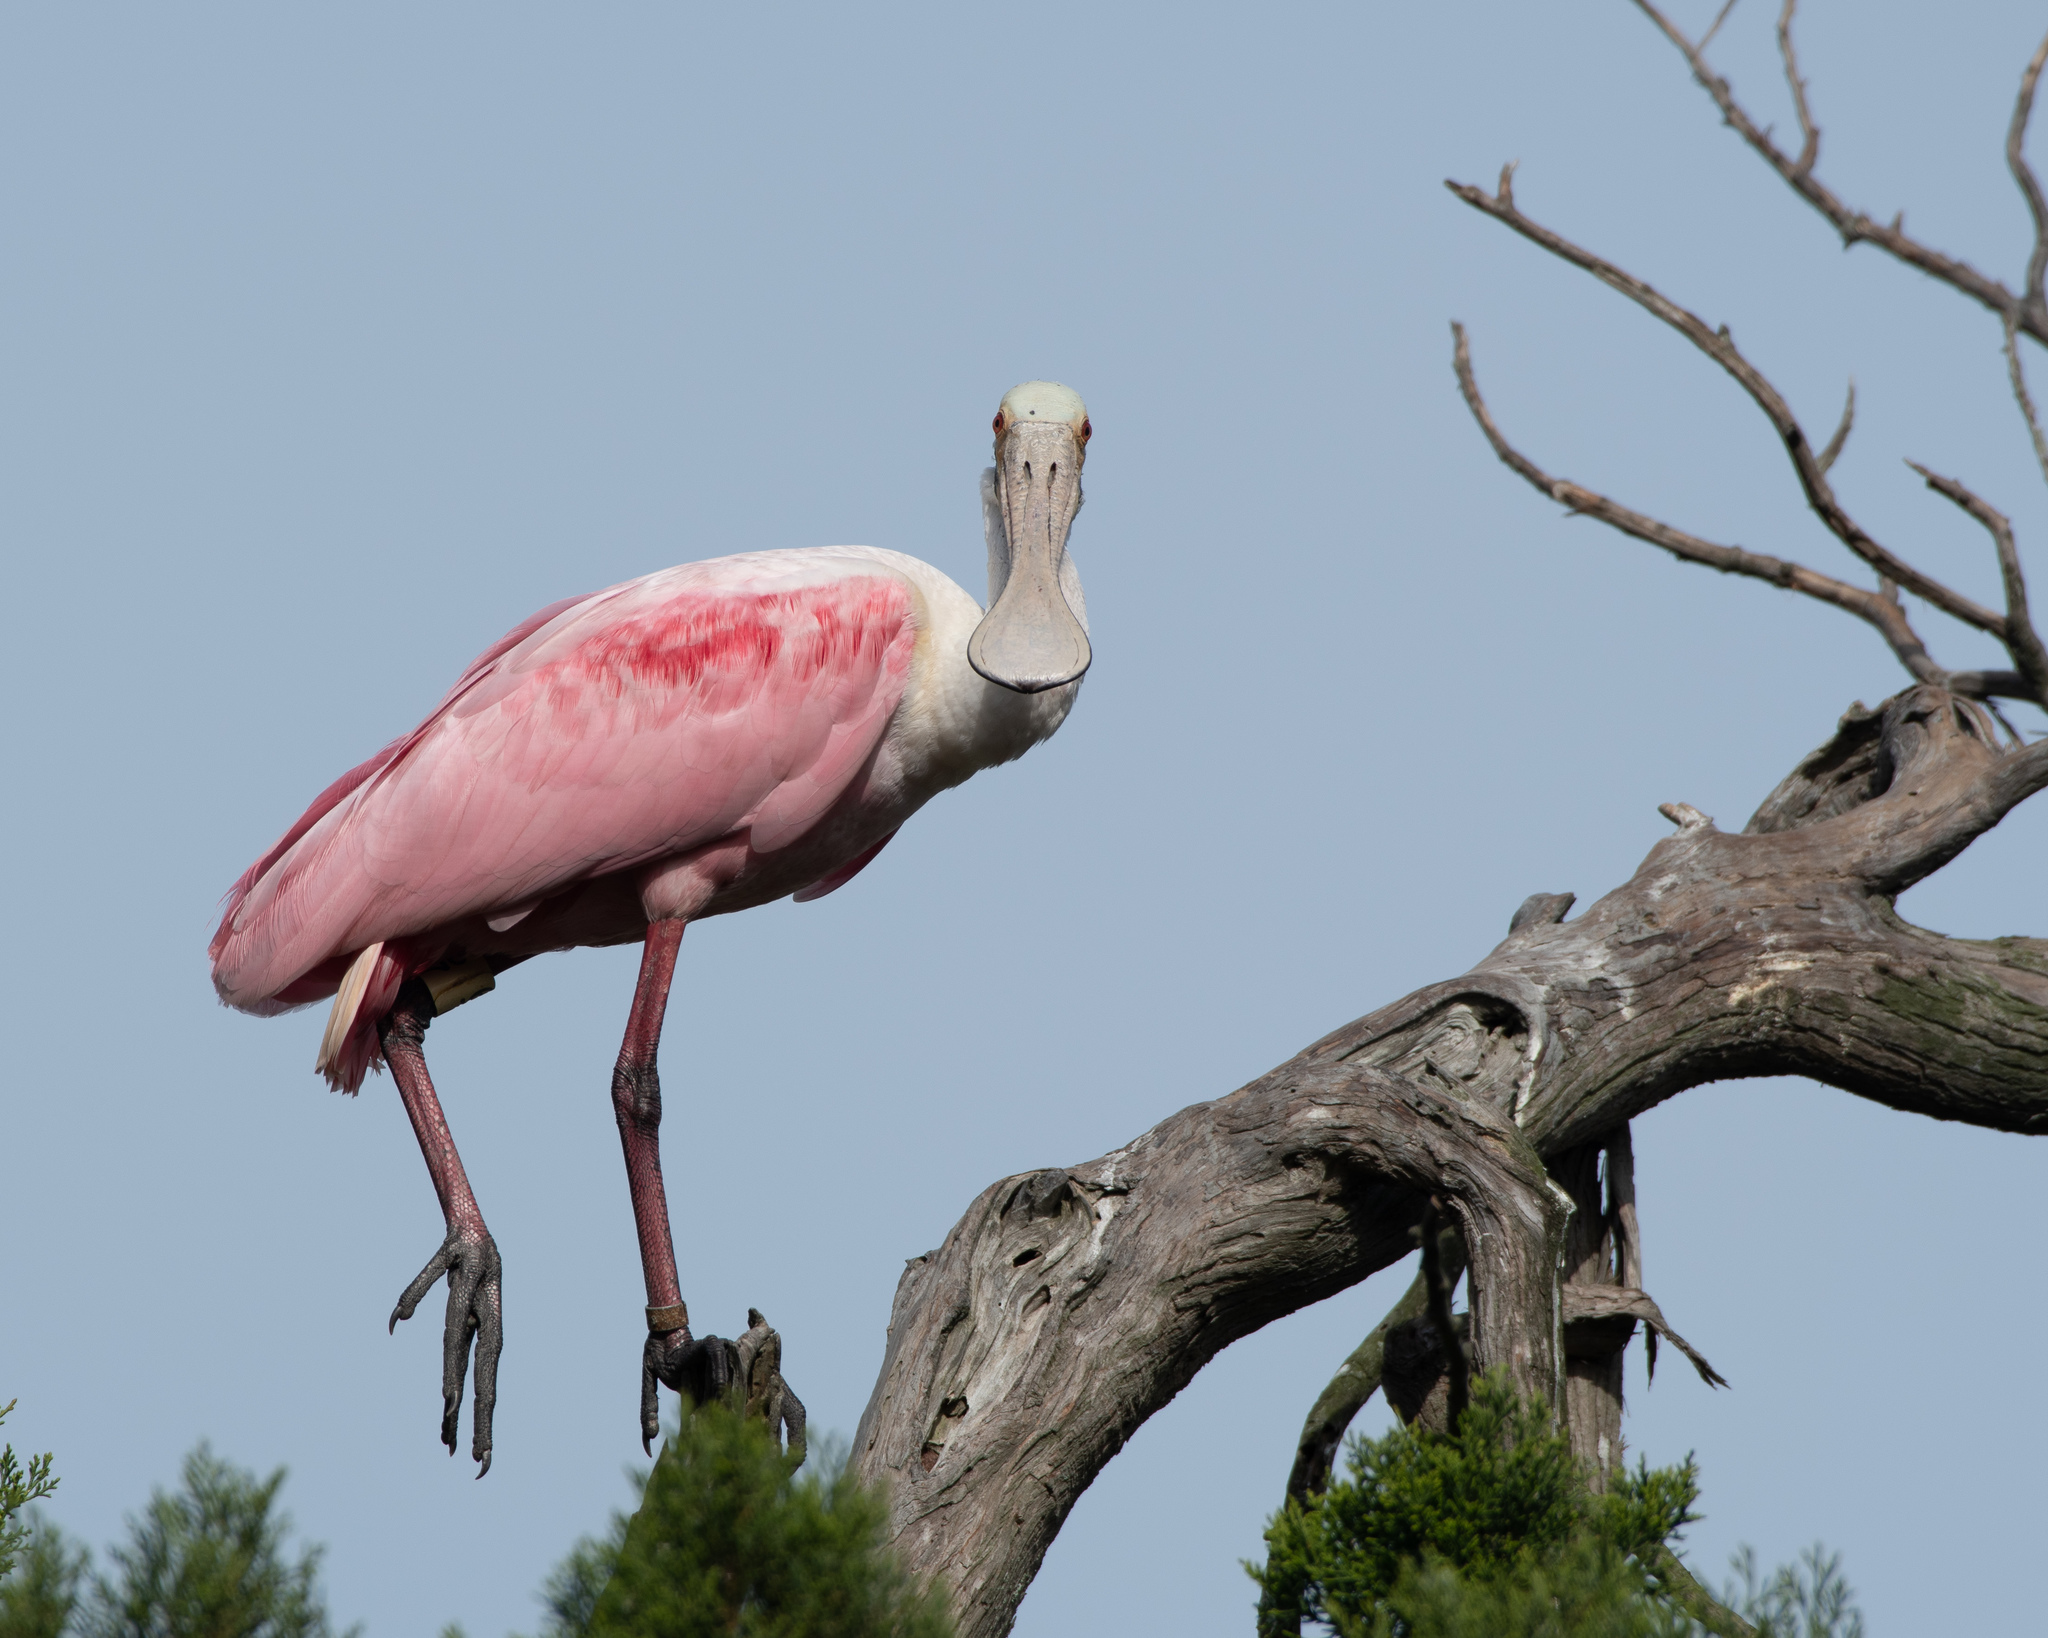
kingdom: Animalia
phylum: Chordata
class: Aves
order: Pelecaniformes
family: Threskiornithidae
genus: Platalea
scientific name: Platalea ajaja
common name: Roseate spoonbill
